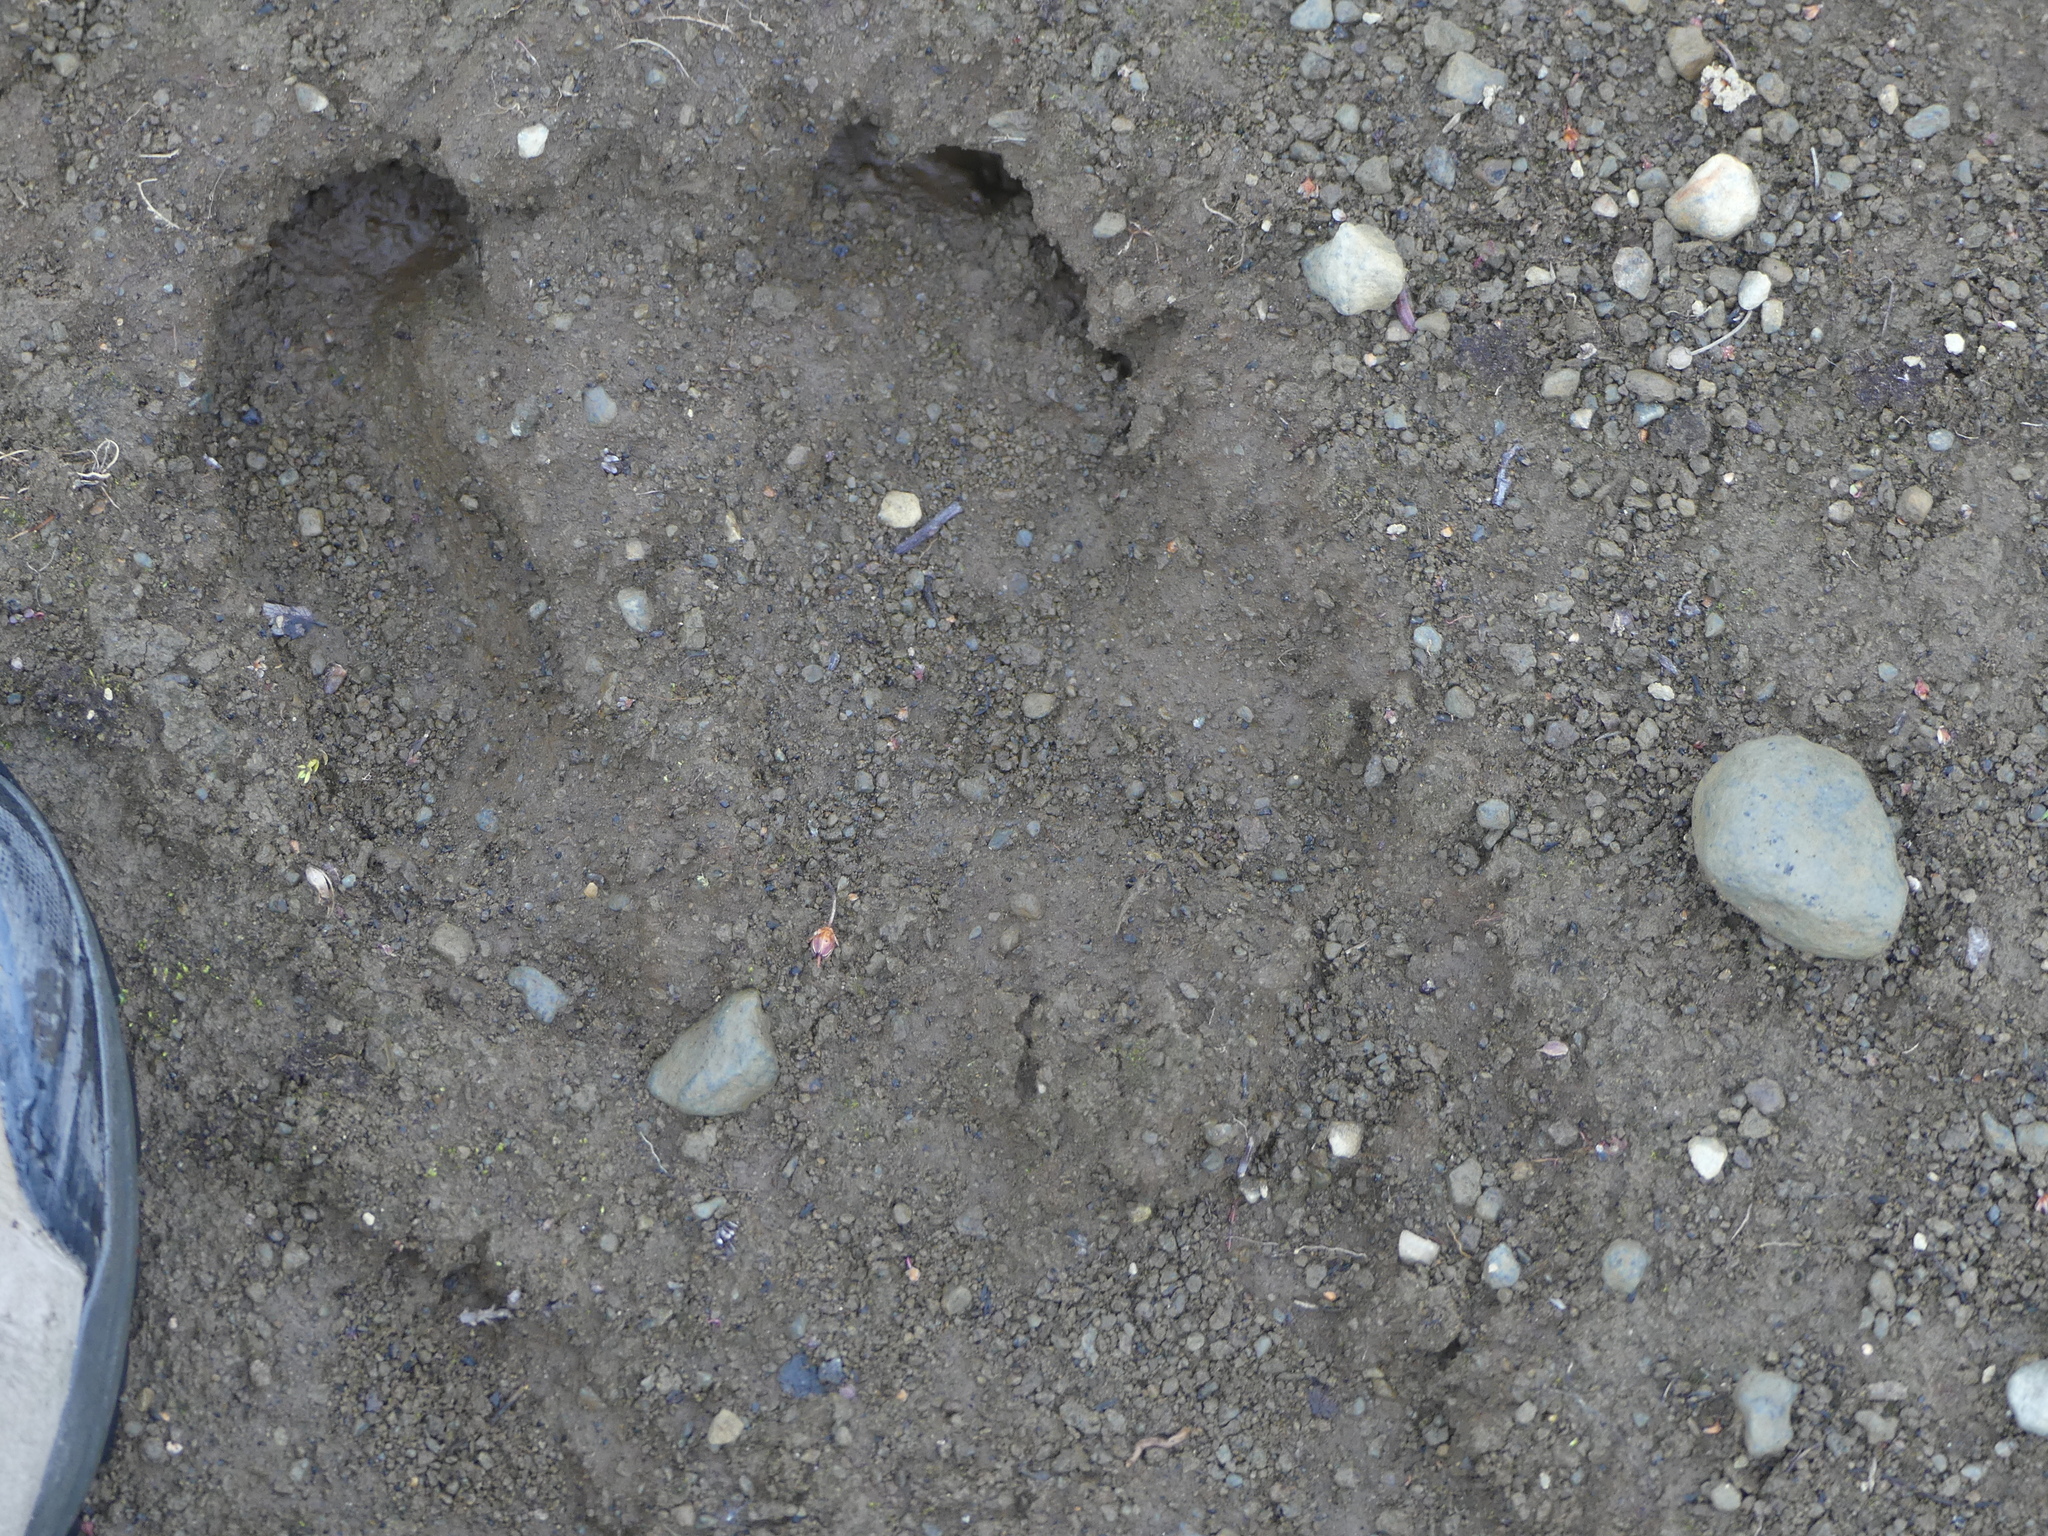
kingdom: Animalia
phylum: Chordata
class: Mammalia
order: Artiodactyla
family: Cervidae
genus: Rangifer
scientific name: Rangifer tarandus
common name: Reindeer
